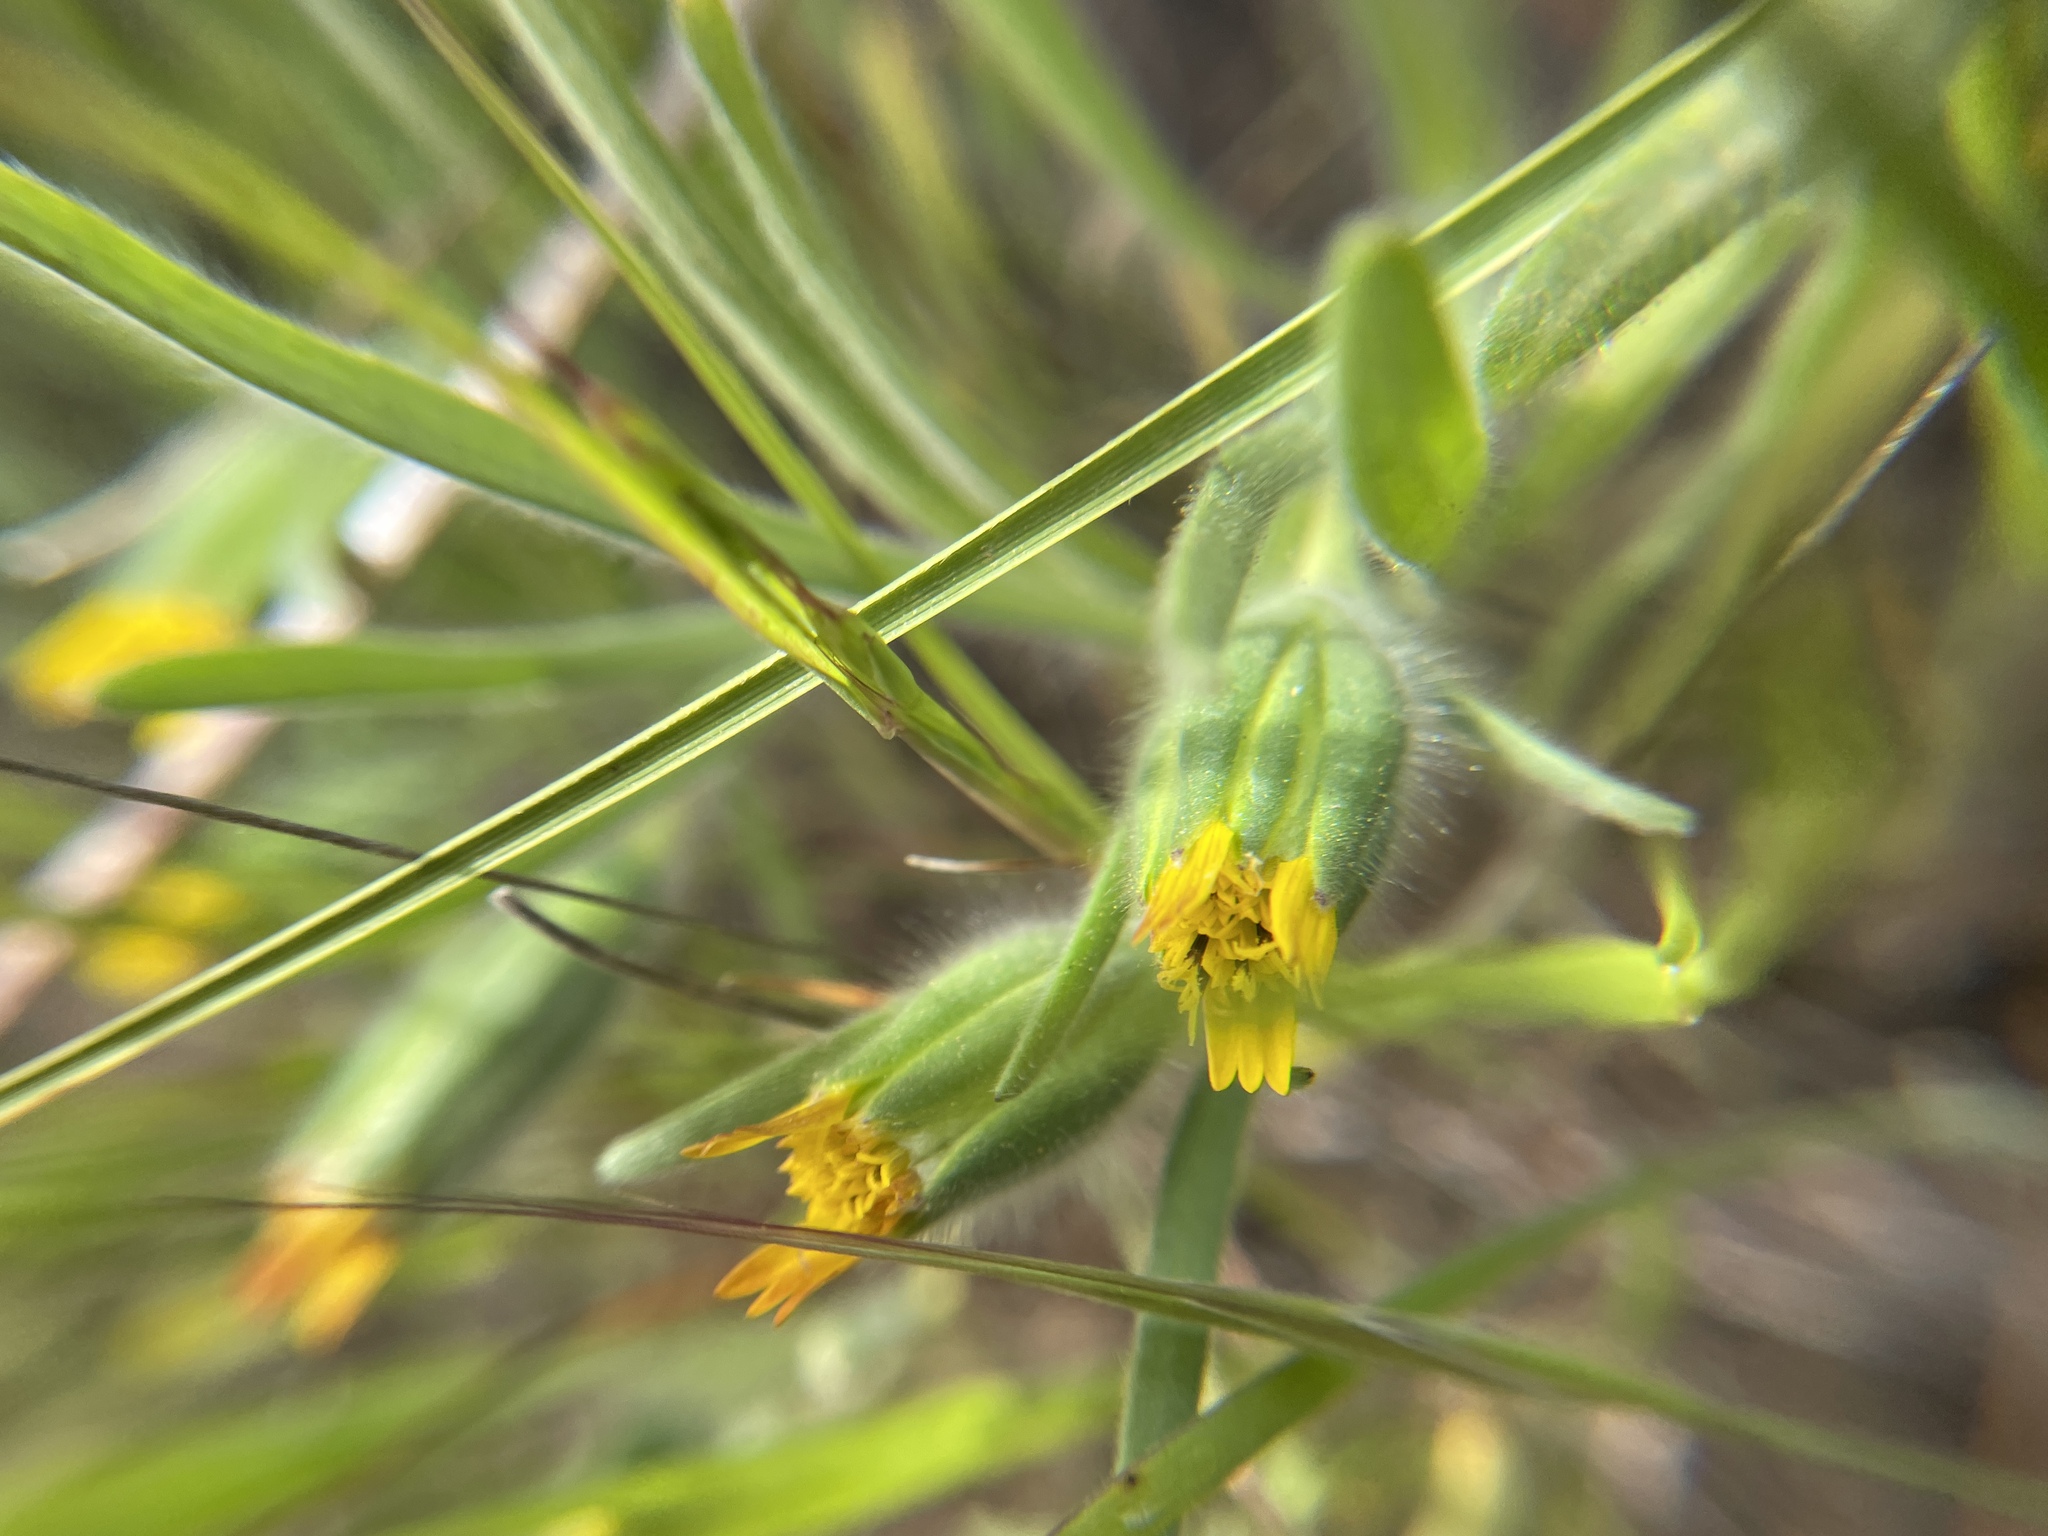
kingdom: Plantae
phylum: Tracheophyta
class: Magnoliopsida
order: Asterales
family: Asteraceae
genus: Achyrachaena
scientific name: Achyrachaena mollis
